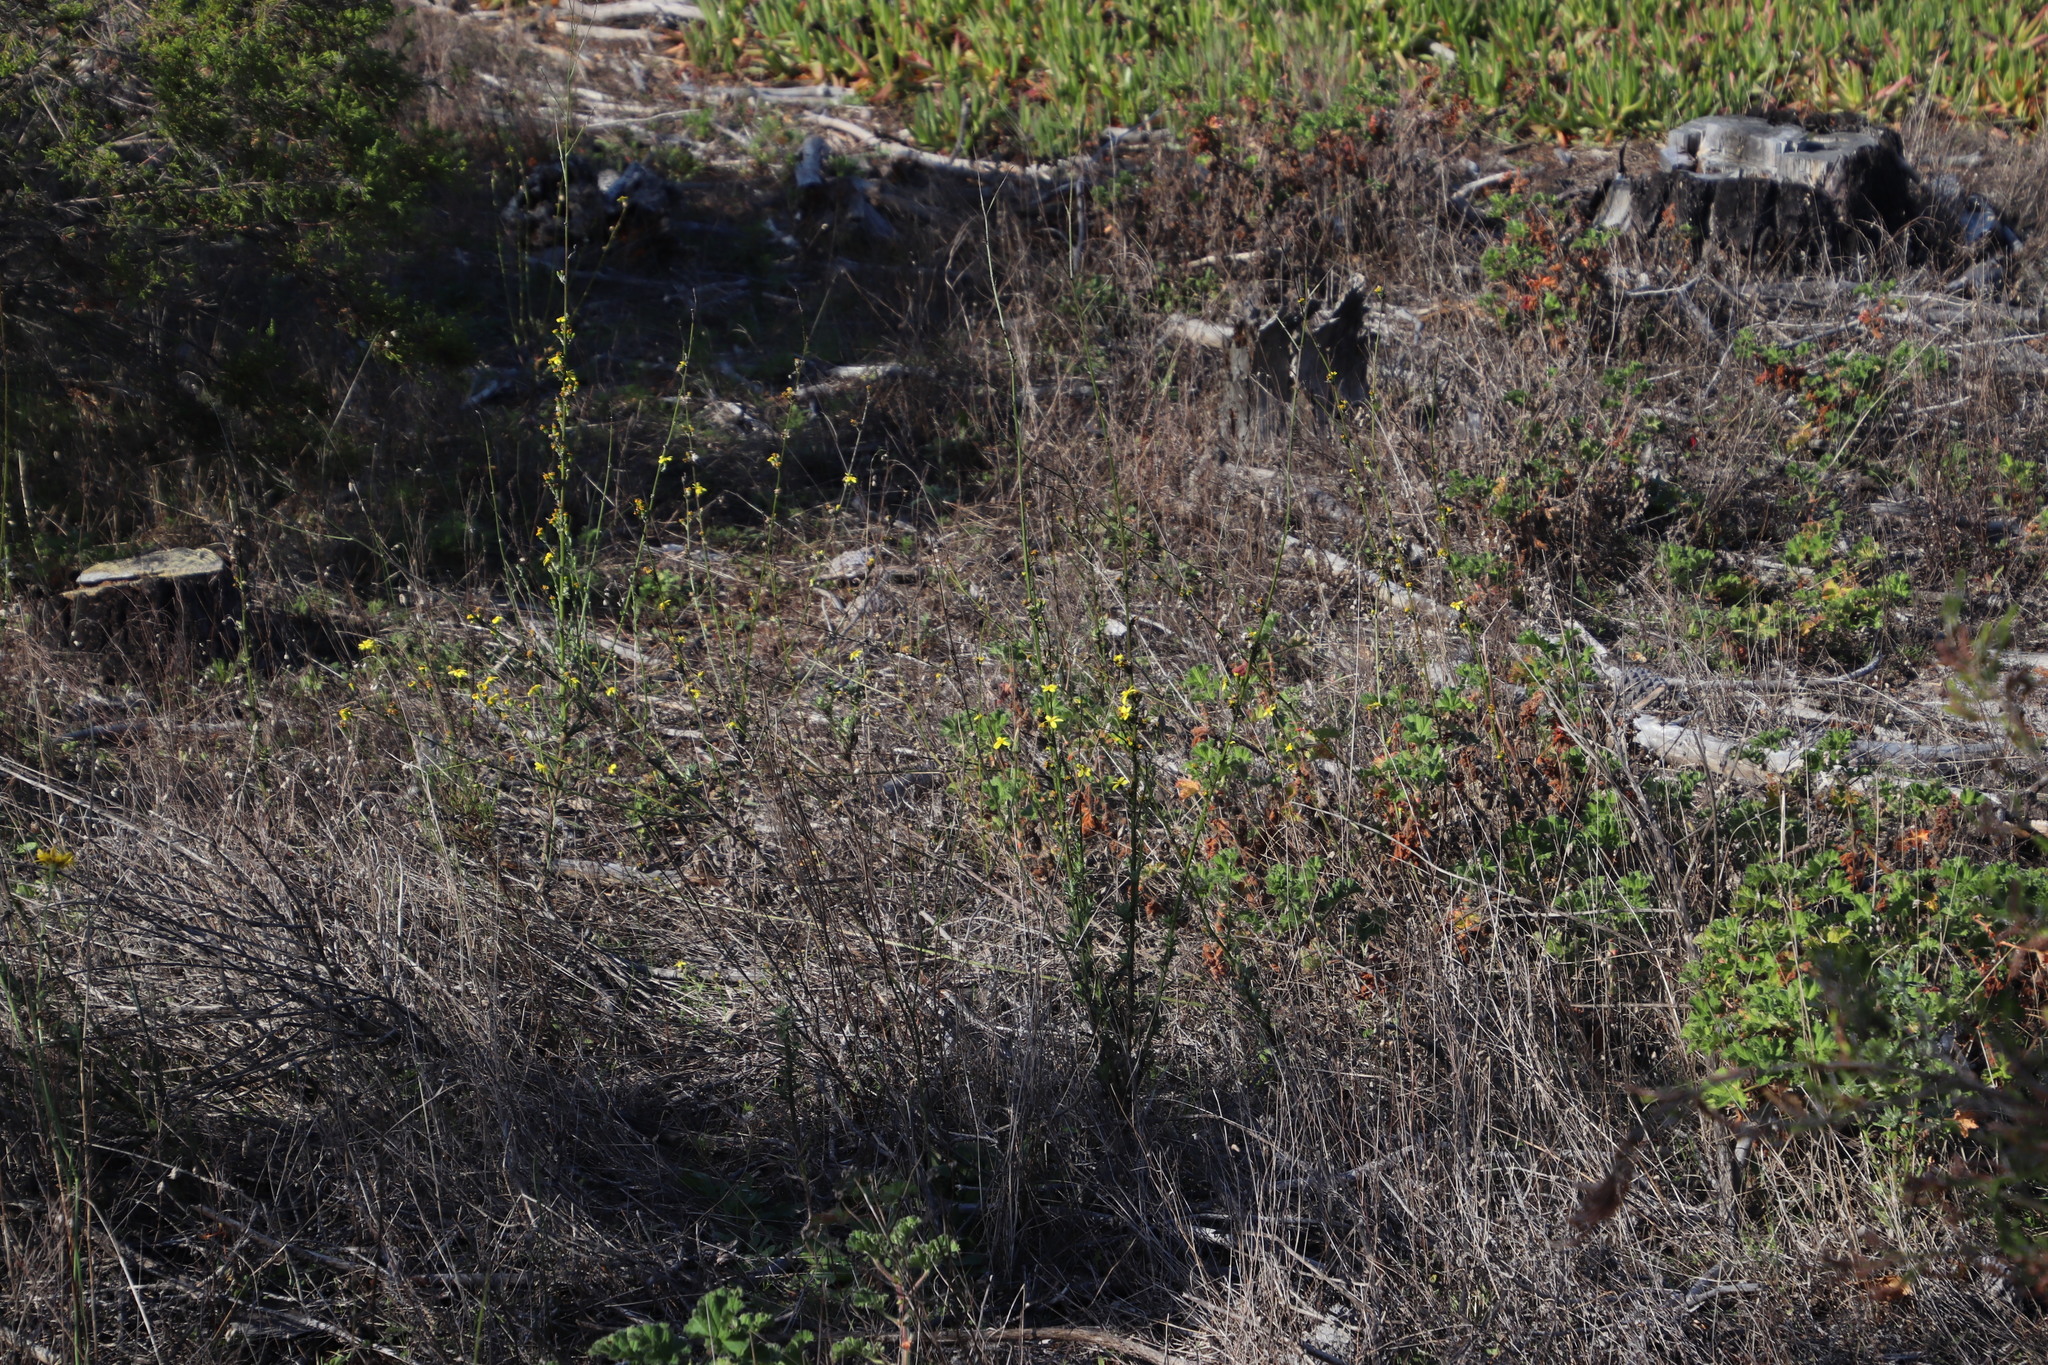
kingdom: Plantae
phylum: Tracheophyta
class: Magnoliopsida
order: Asterales
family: Asteraceae
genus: Senecio
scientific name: Senecio pubigerus
